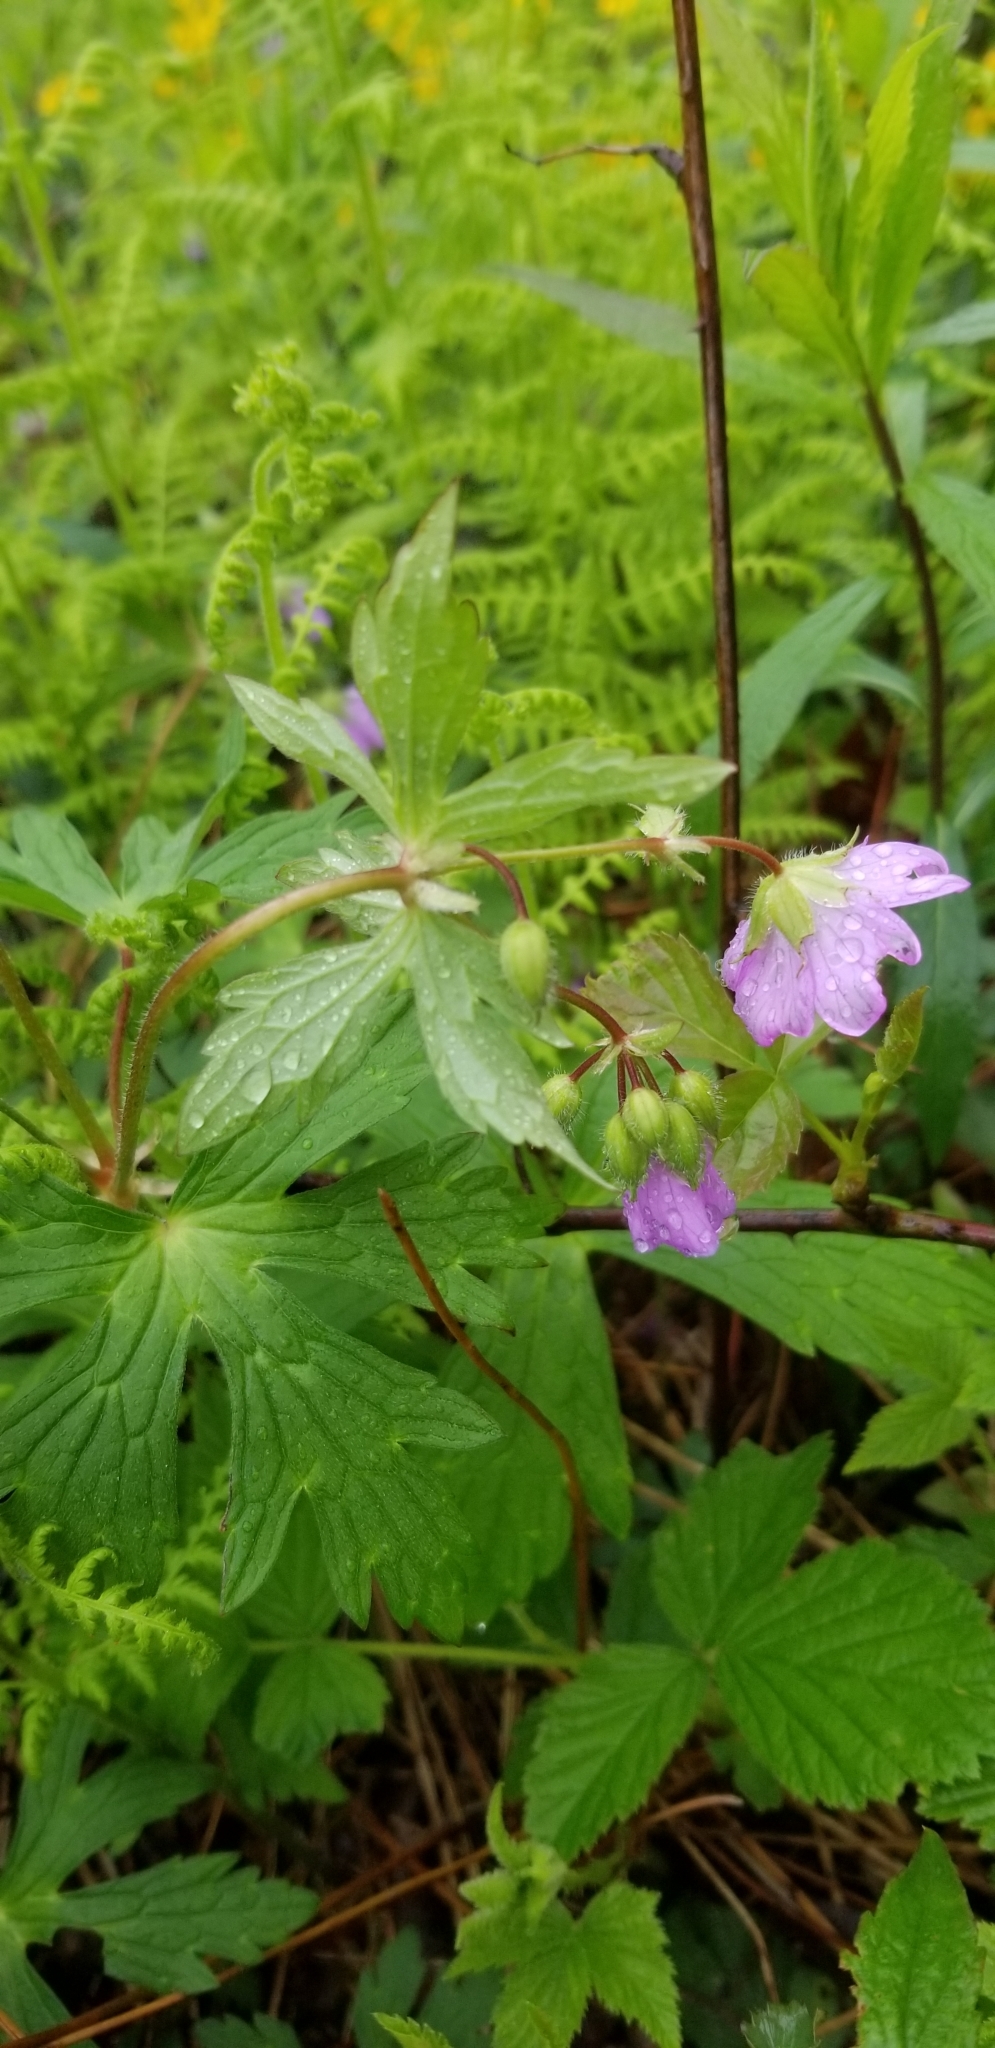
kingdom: Plantae
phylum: Tracheophyta
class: Magnoliopsida
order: Geraniales
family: Geraniaceae
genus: Geranium
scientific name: Geranium maculatum
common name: Spotted geranium
